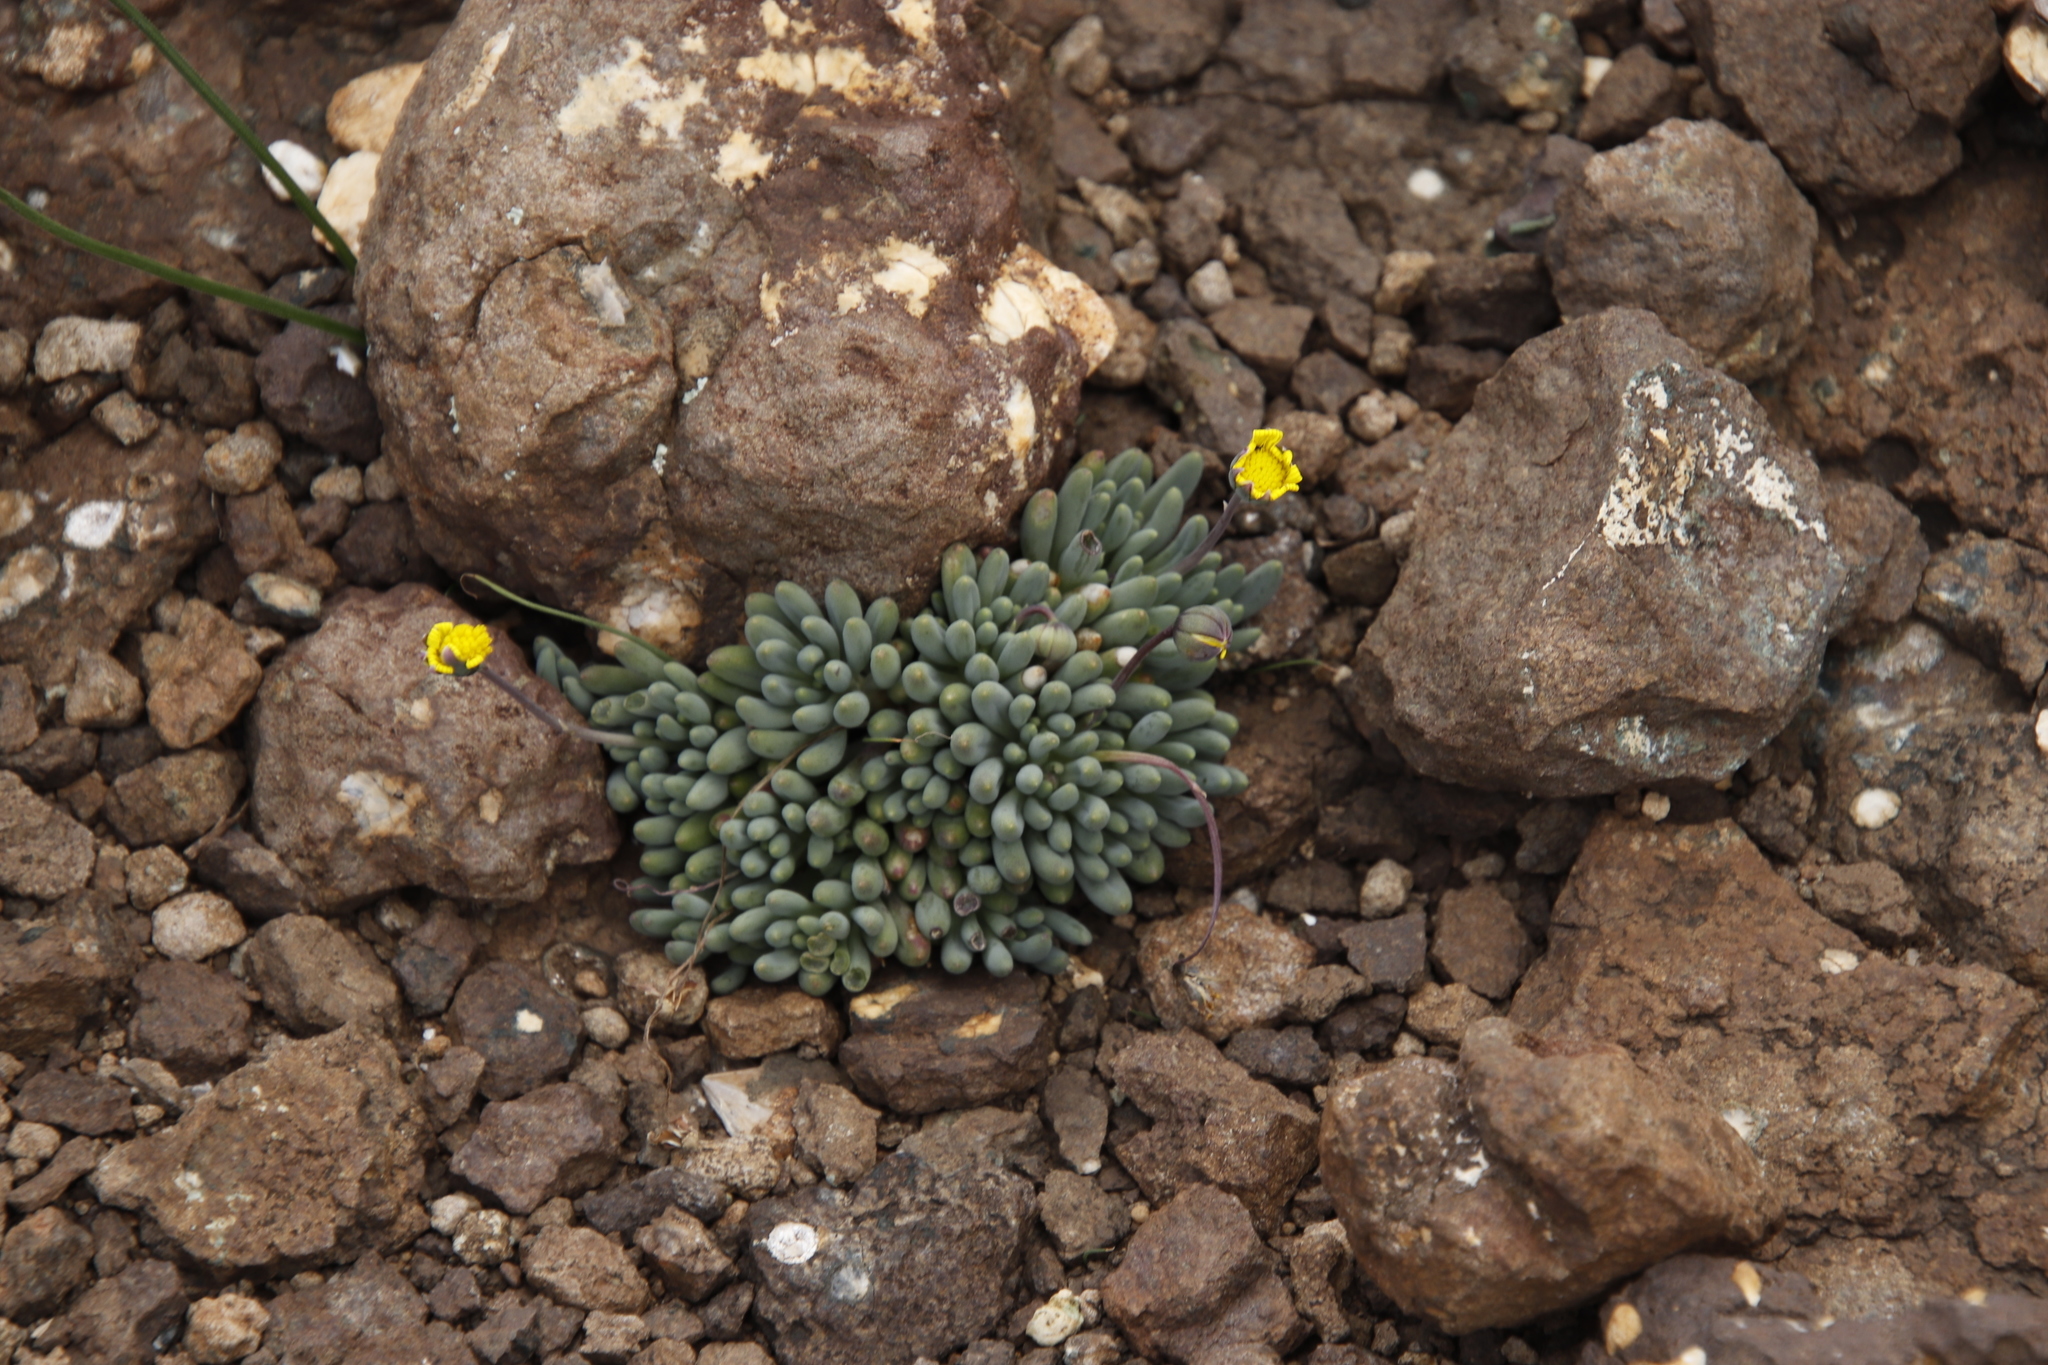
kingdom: Plantae
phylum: Tracheophyta
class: Magnoliopsida
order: Asterales
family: Asteraceae
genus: Crassothonna
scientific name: Crassothonna patula
